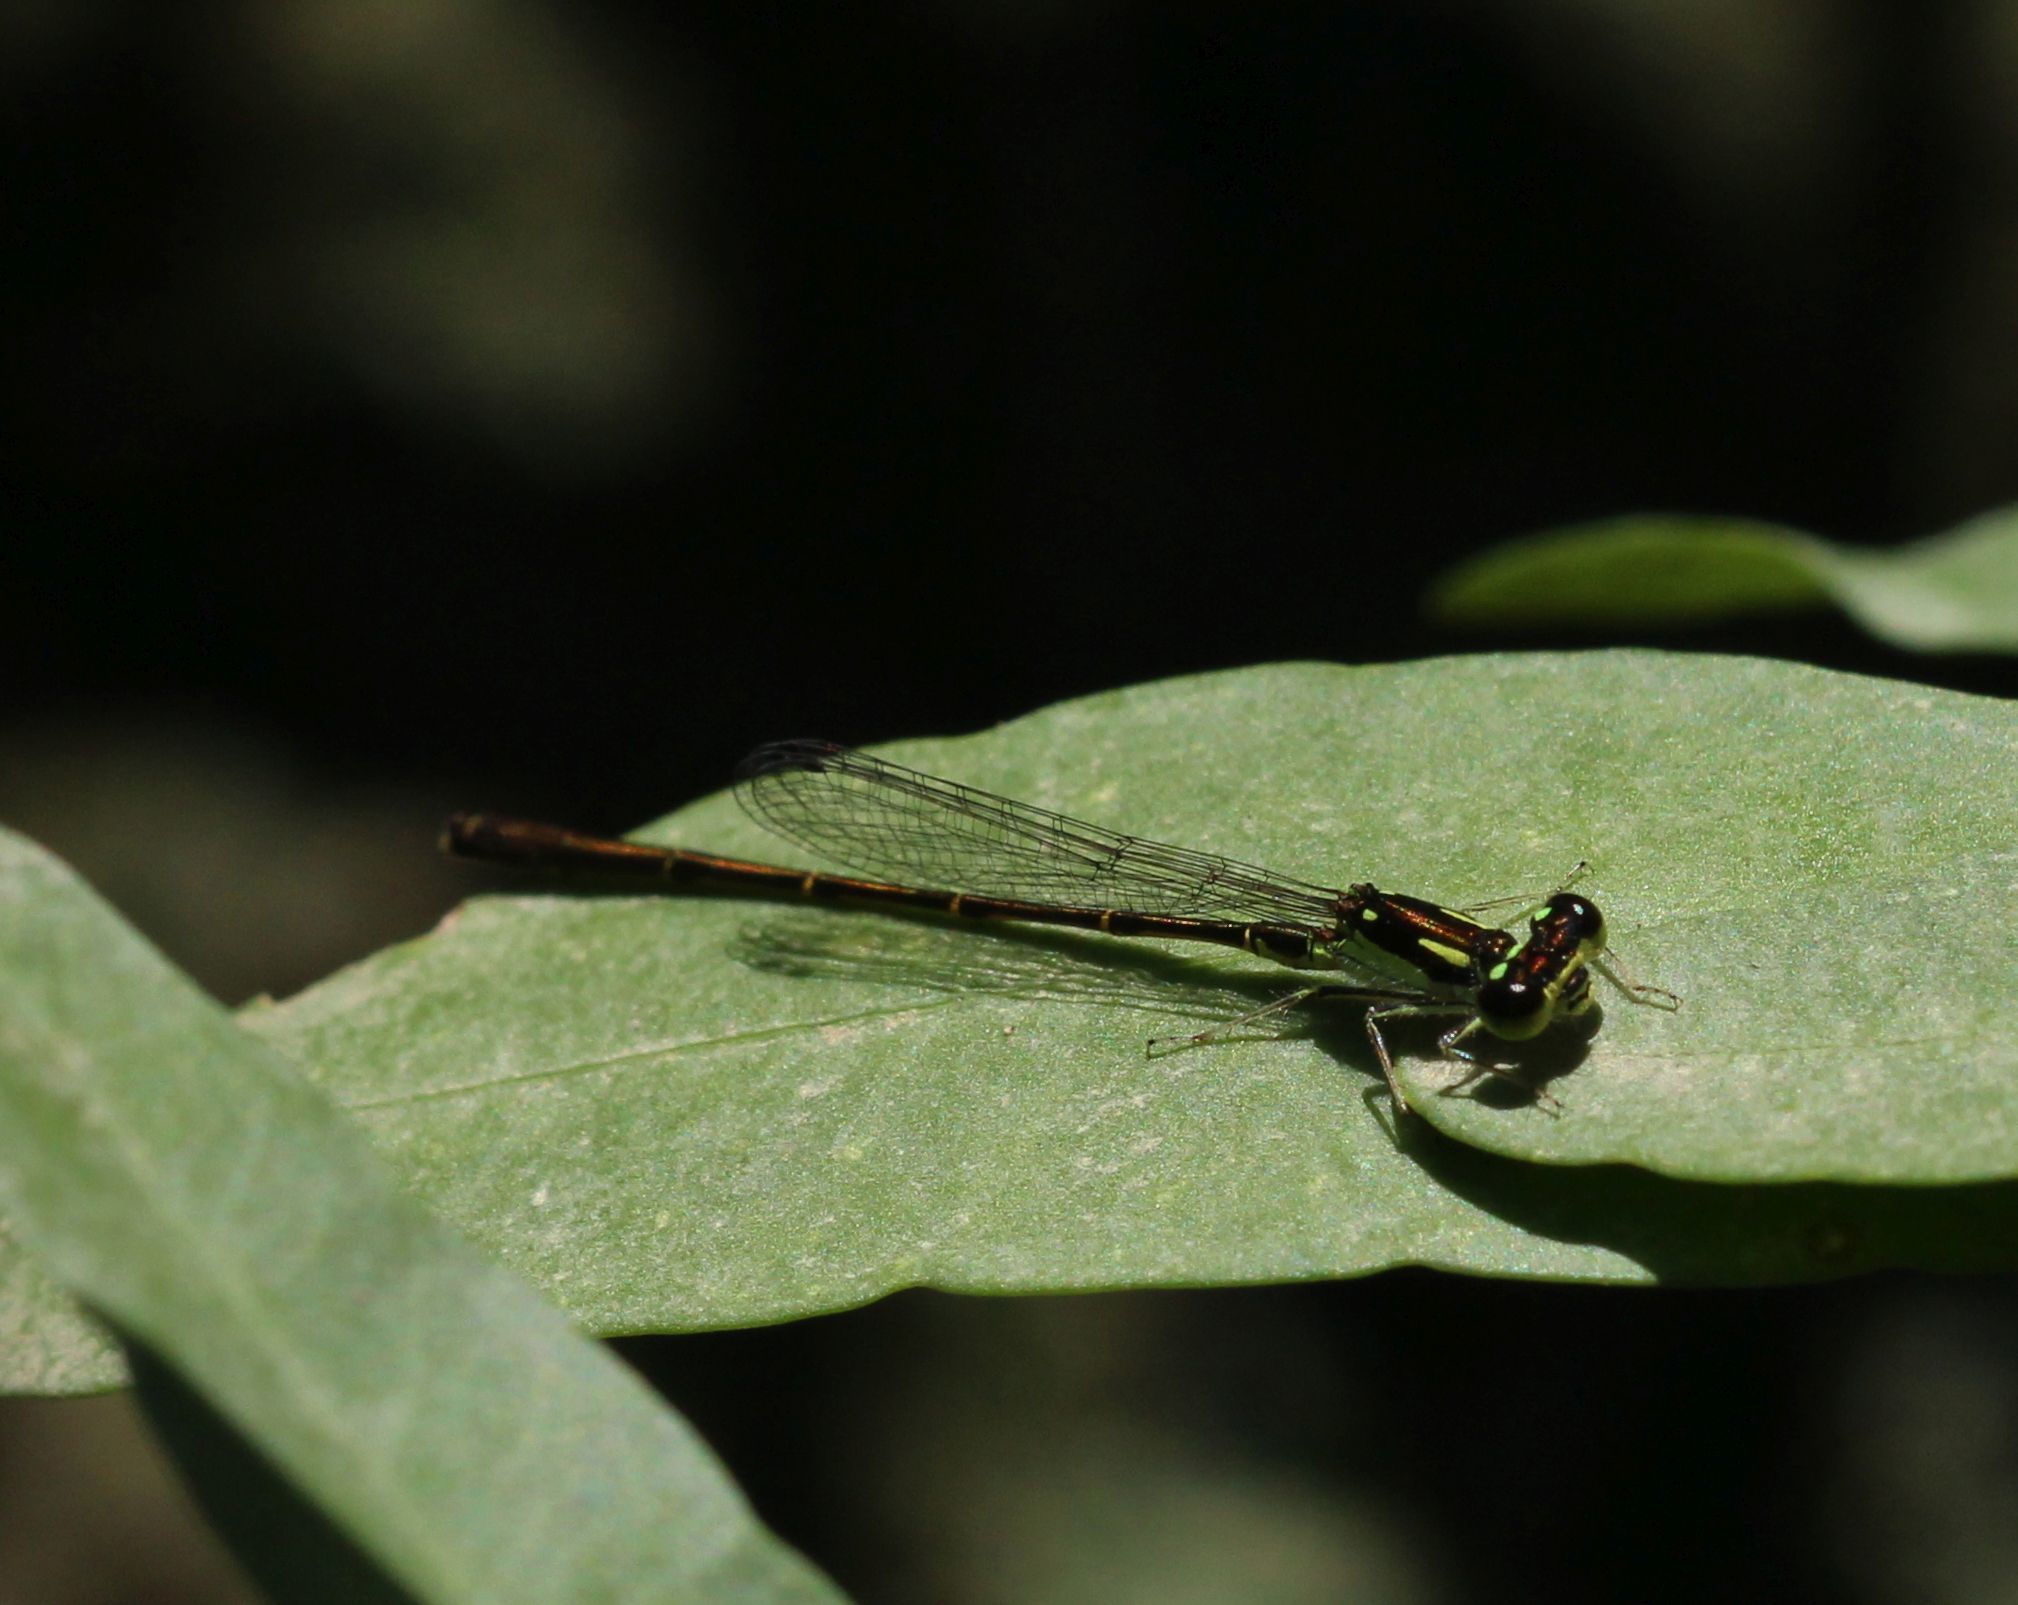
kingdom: Animalia
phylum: Arthropoda
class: Insecta
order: Odonata
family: Coenagrionidae
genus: Ischnura
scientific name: Ischnura posita
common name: Fragile forktail
